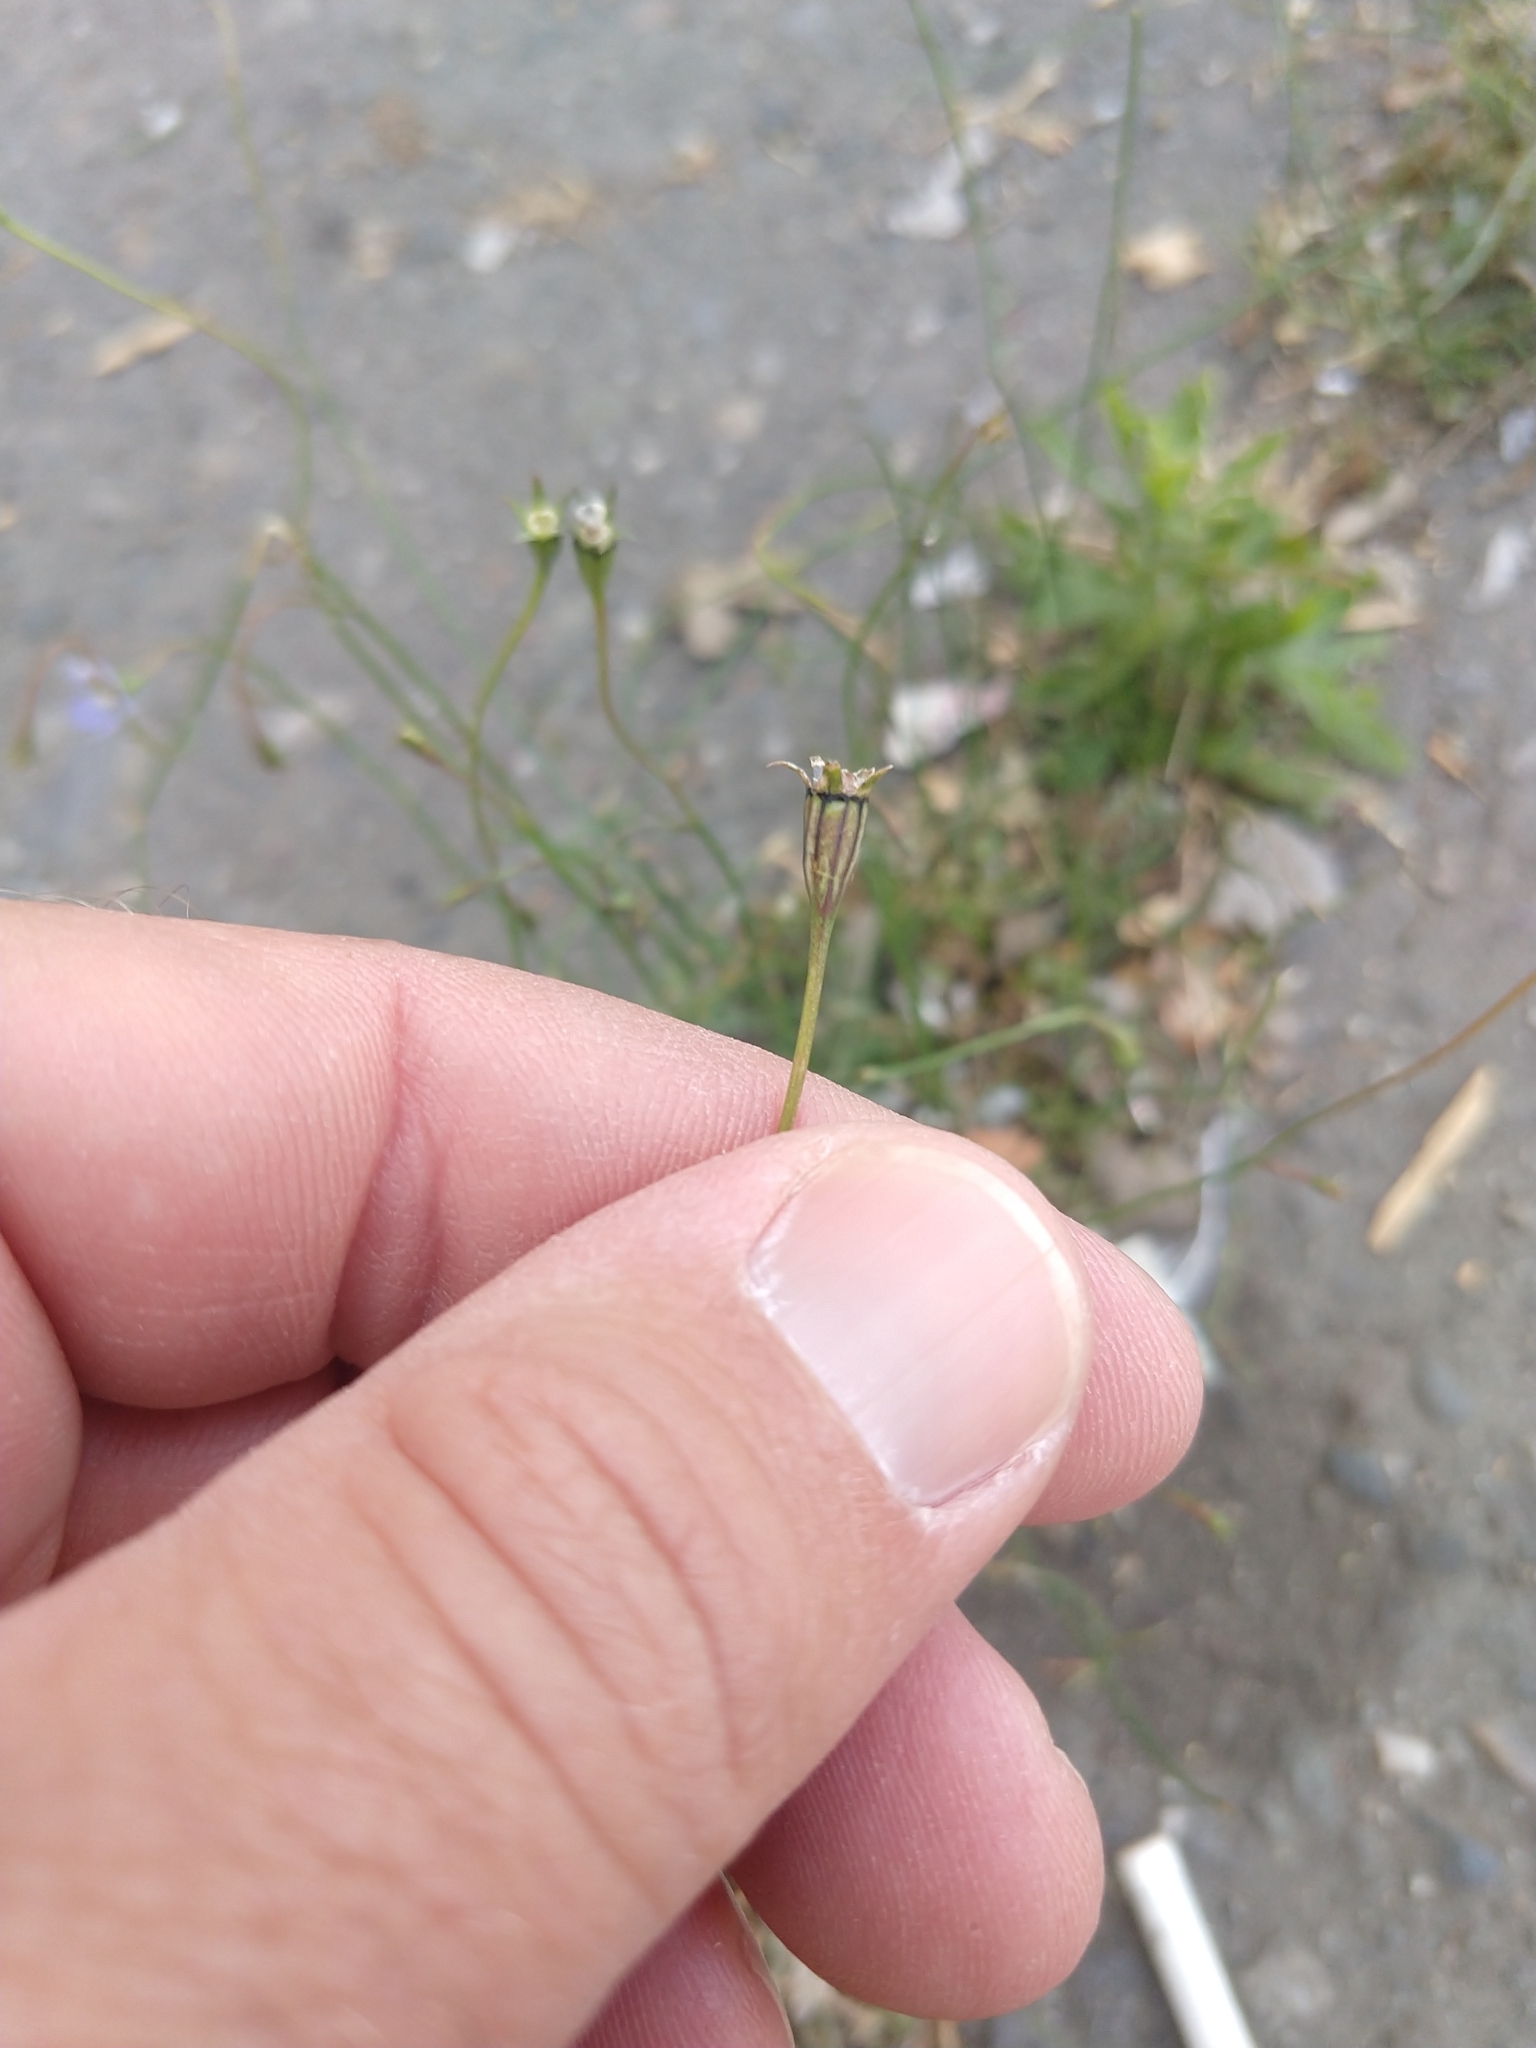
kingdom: Plantae
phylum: Tracheophyta
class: Magnoliopsida
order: Asterales
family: Campanulaceae
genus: Wahlenbergia
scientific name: Wahlenbergia marginata
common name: Southern rockbell
